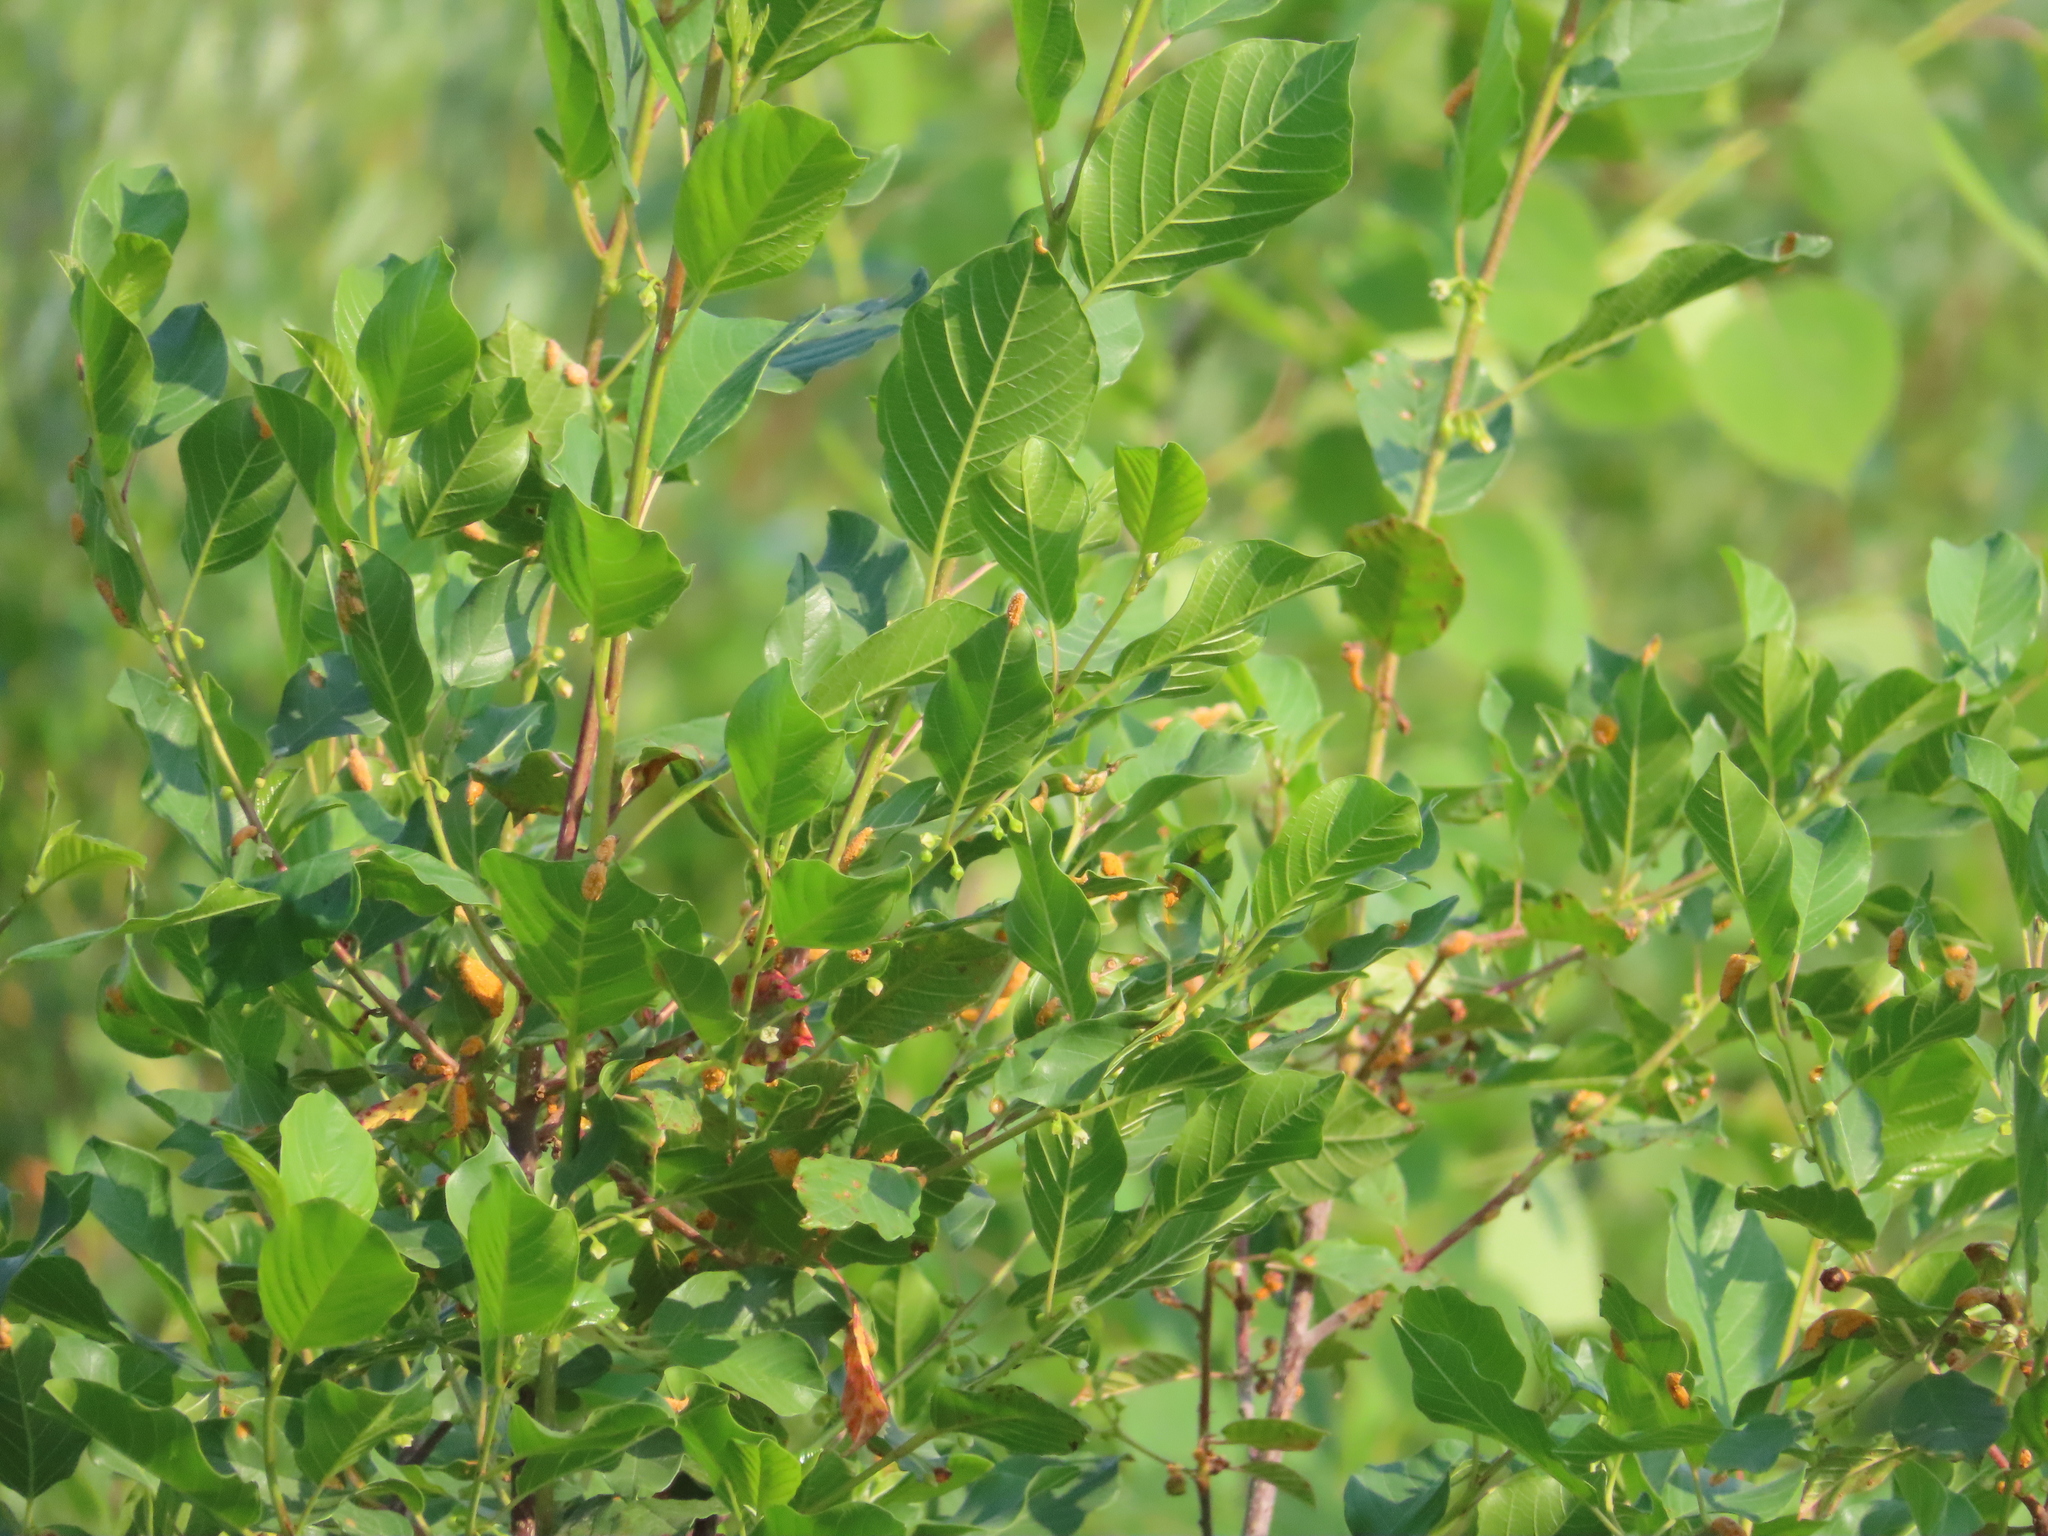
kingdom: Plantae
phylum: Tracheophyta
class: Magnoliopsida
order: Rosales
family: Rhamnaceae
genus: Frangula
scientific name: Frangula alnus
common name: Alder buckthorn
